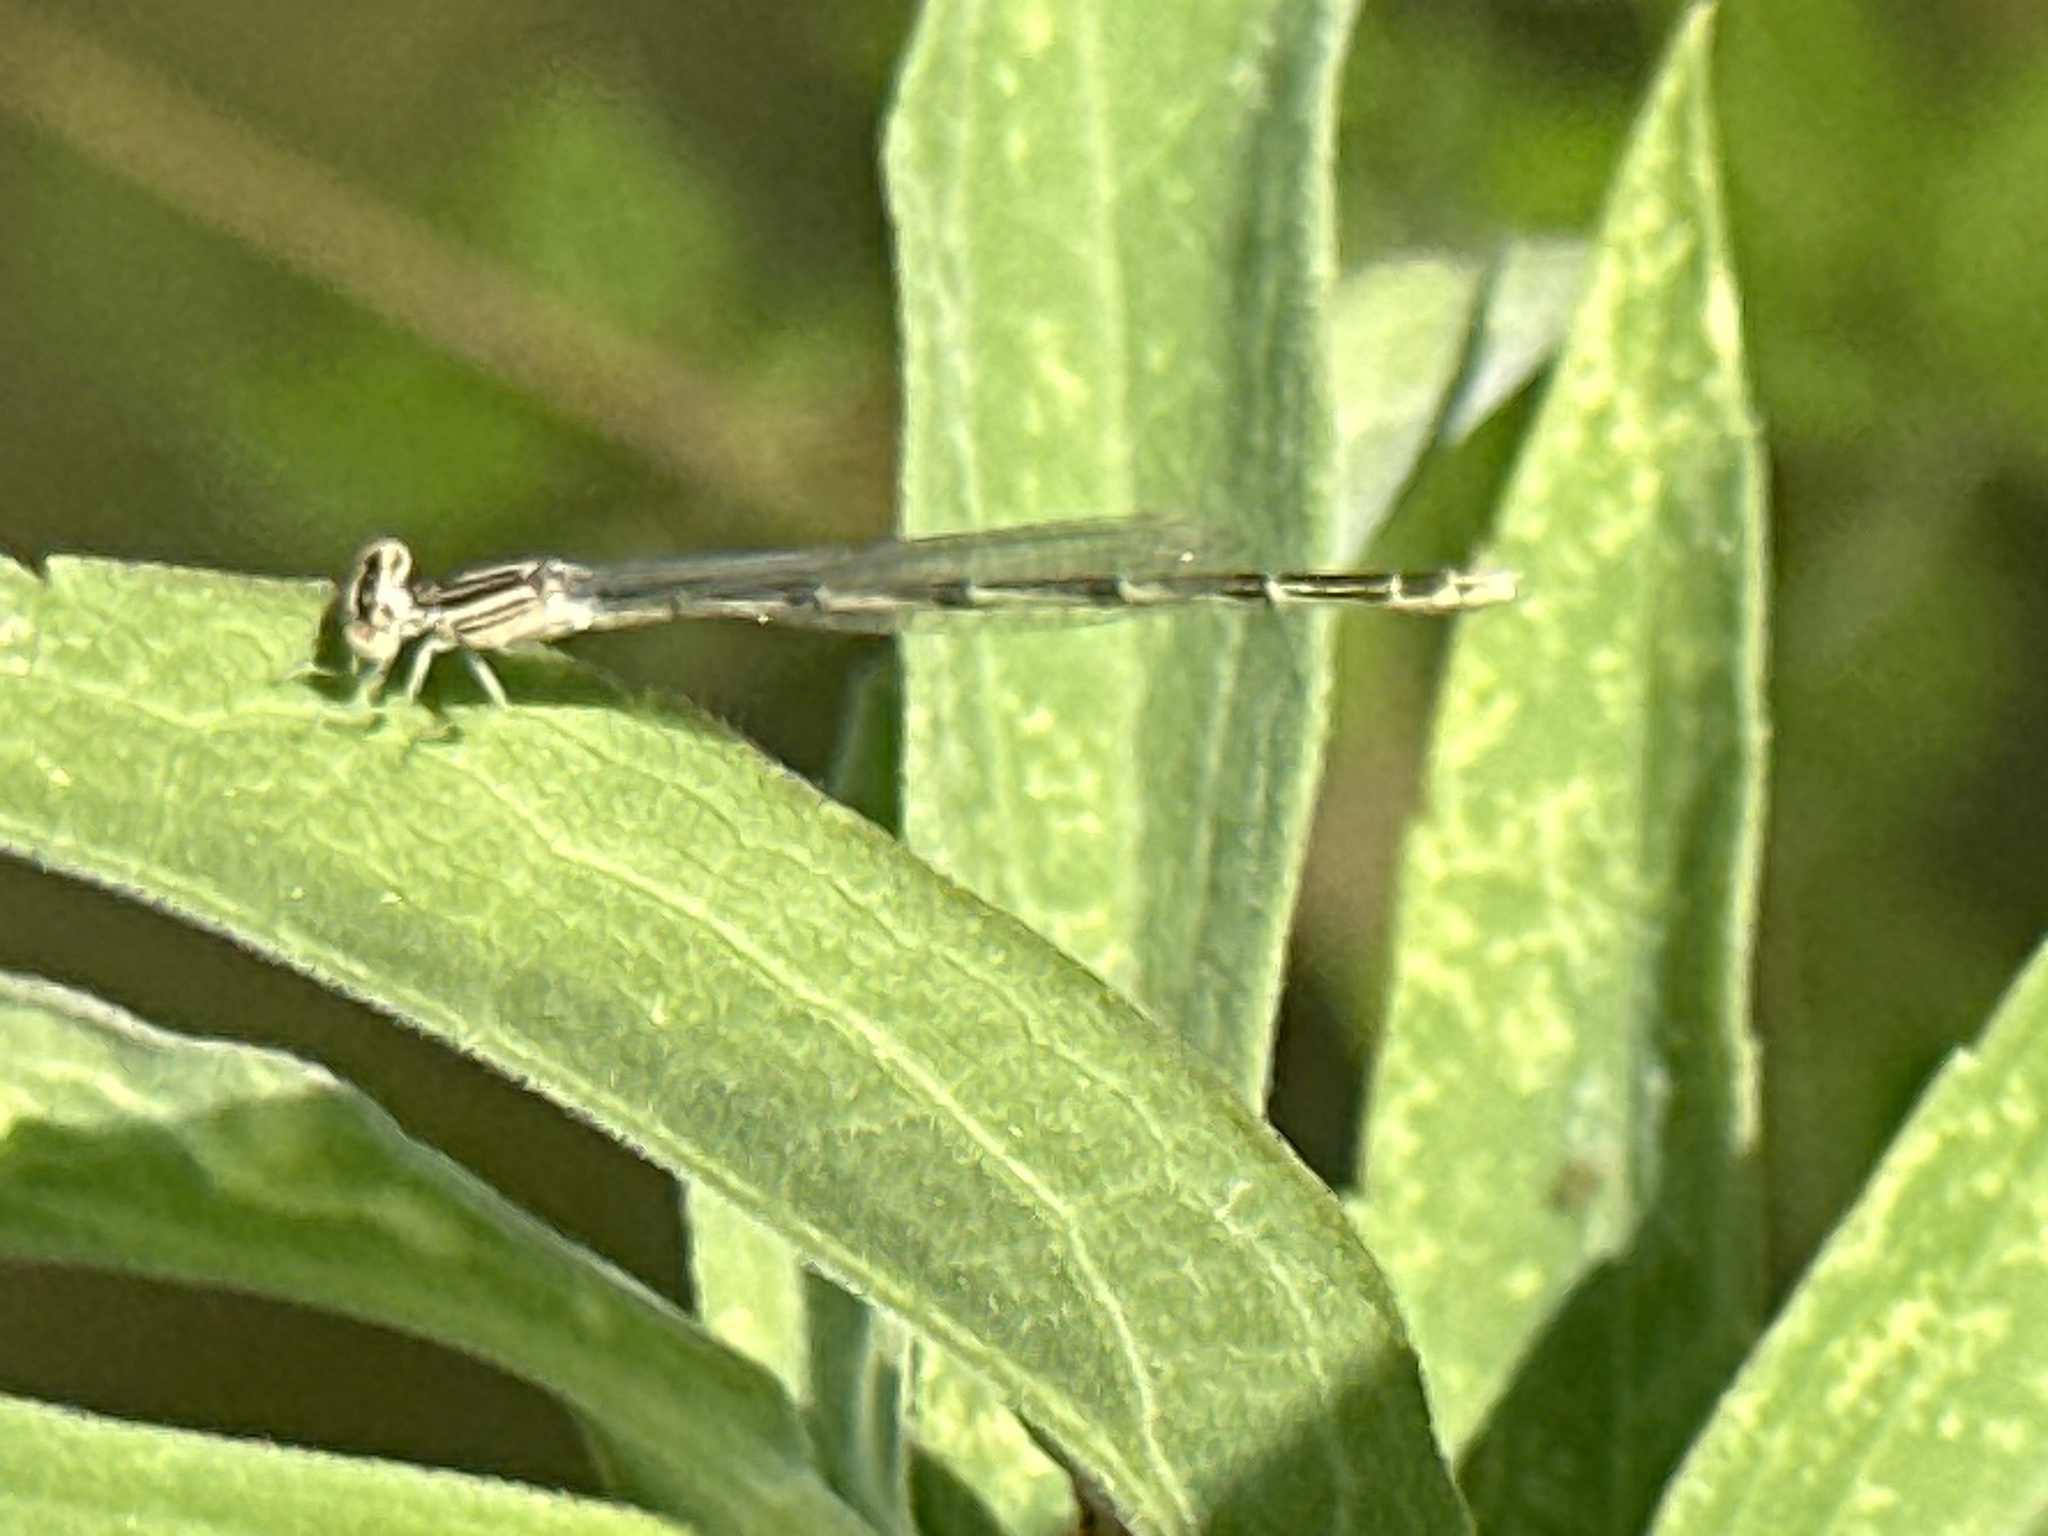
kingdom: Animalia
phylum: Arthropoda
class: Insecta
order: Odonata
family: Coenagrionidae
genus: Enallagma
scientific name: Enallagma basidens
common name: Double-striped bluet
